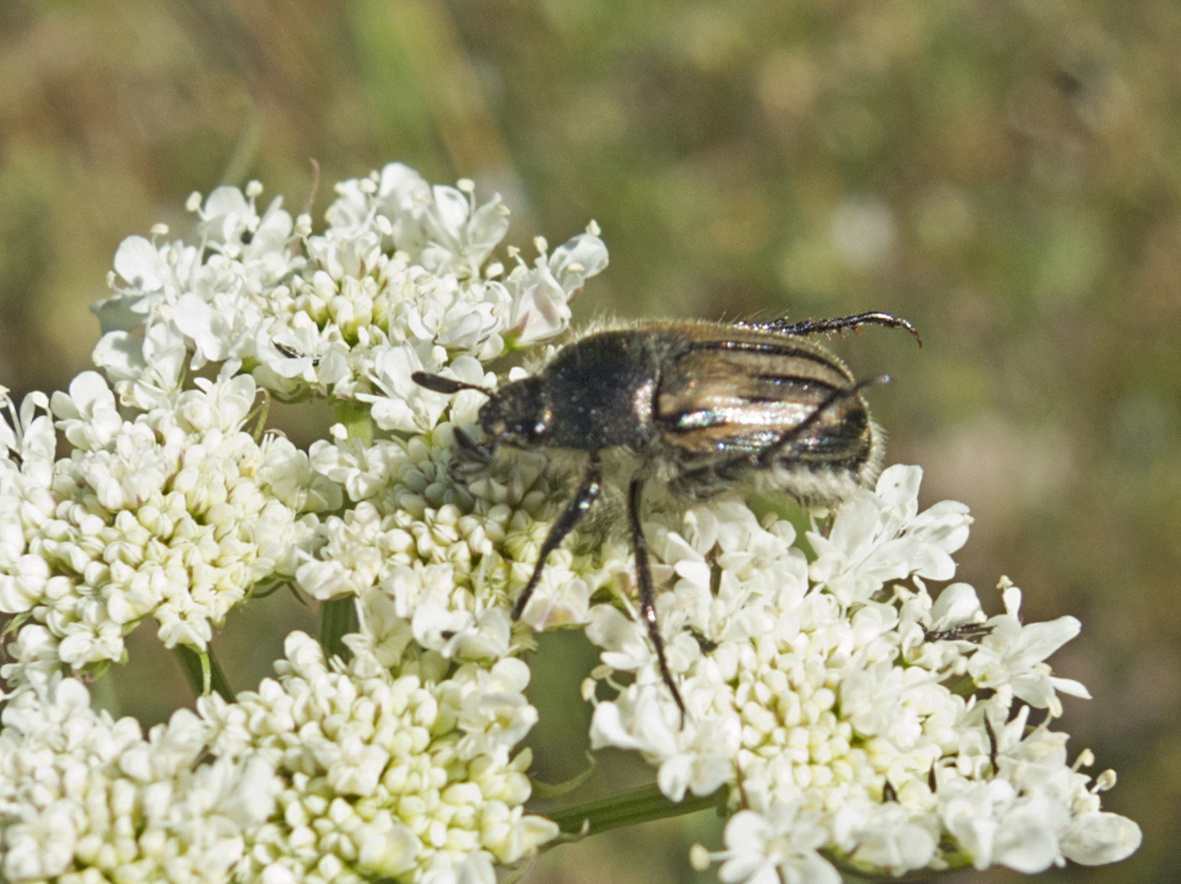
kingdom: Animalia
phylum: Arthropoda
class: Insecta
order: Coleoptera
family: Scarabaeidae
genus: Blitopertha
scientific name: Blitopertha lineolata
